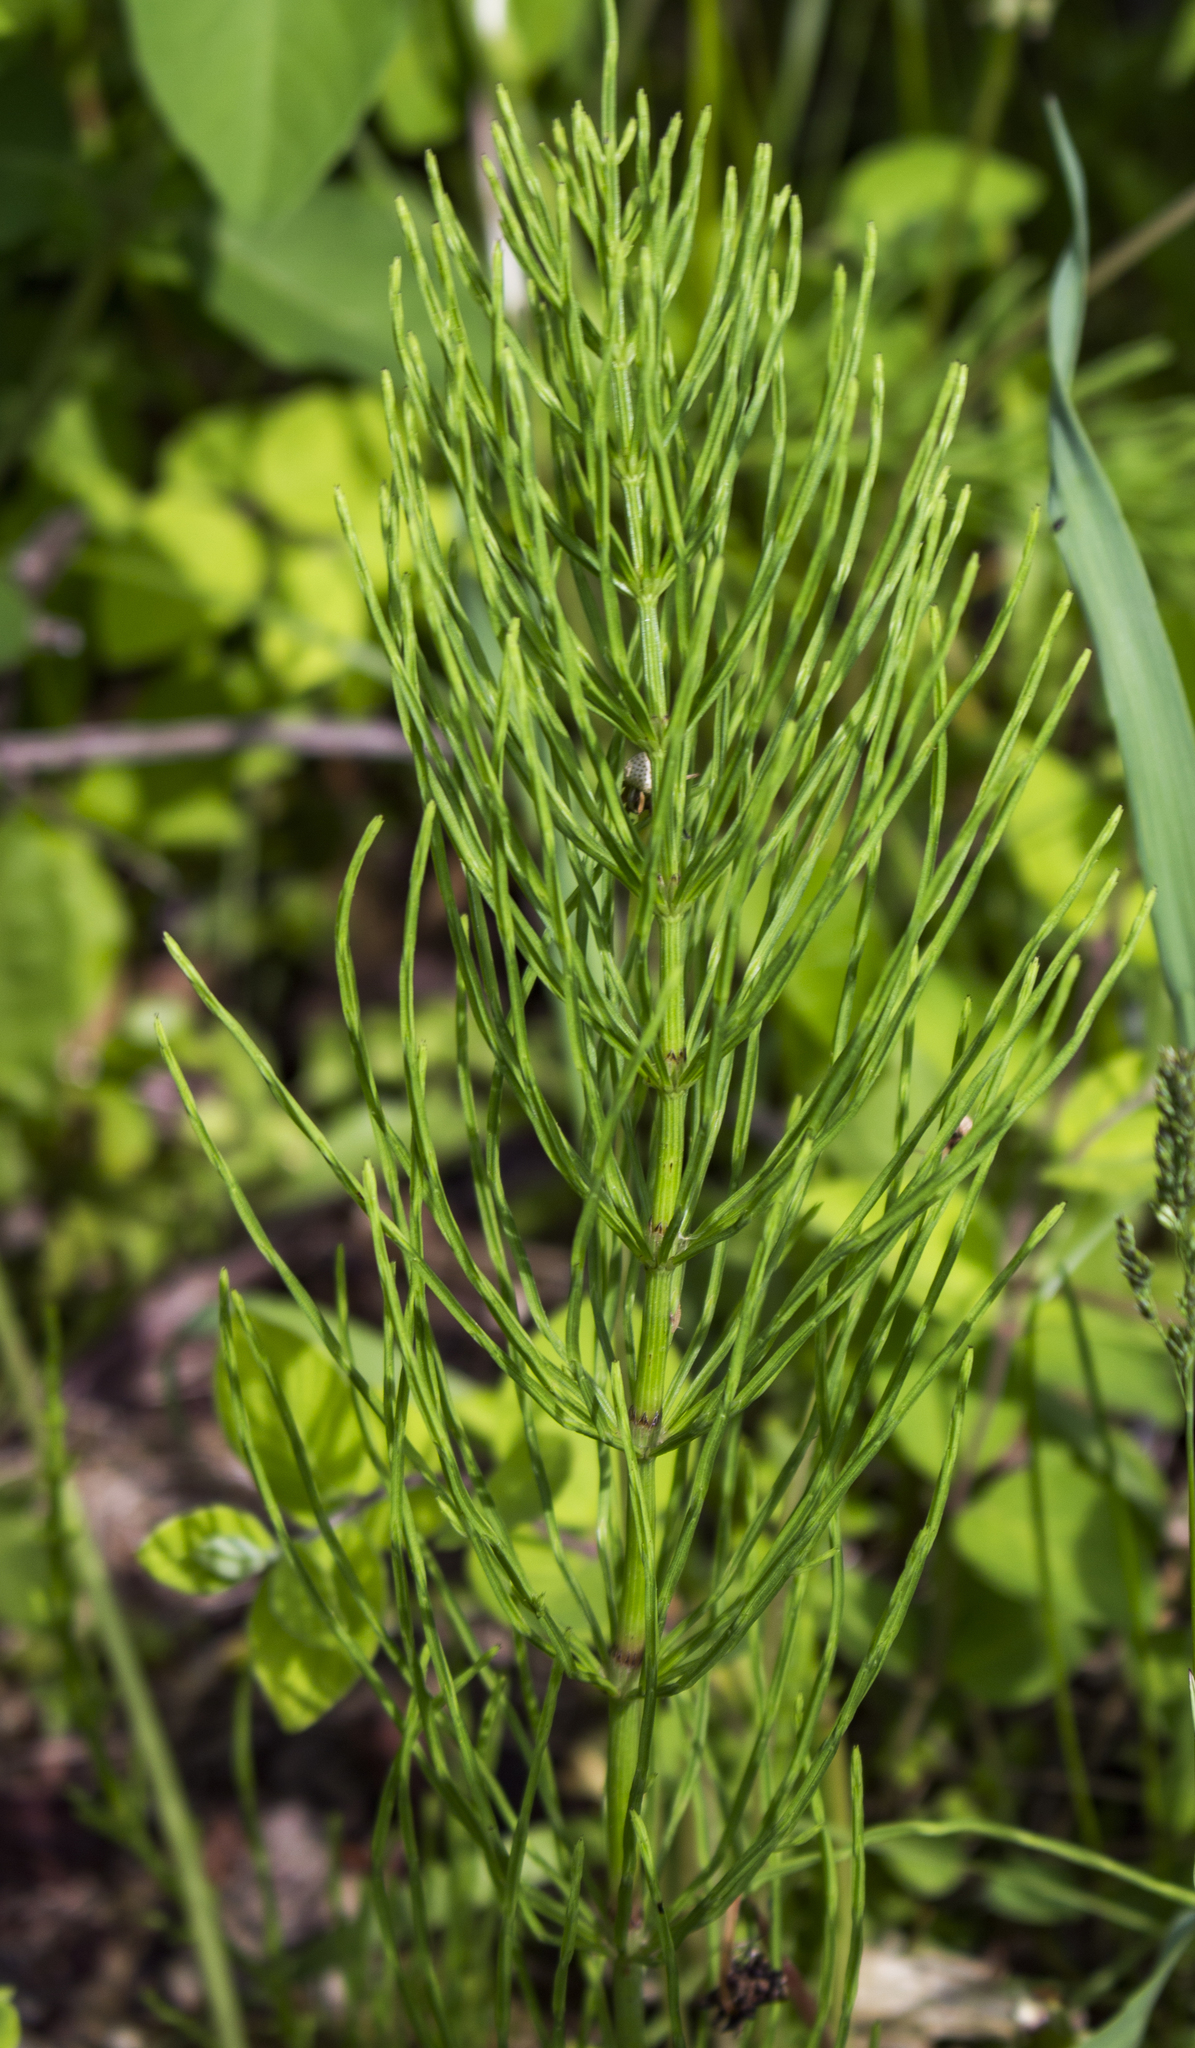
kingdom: Plantae
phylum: Tracheophyta
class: Polypodiopsida
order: Equisetales
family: Equisetaceae
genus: Equisetum
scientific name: Equisetum arvense
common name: Field horsetail
